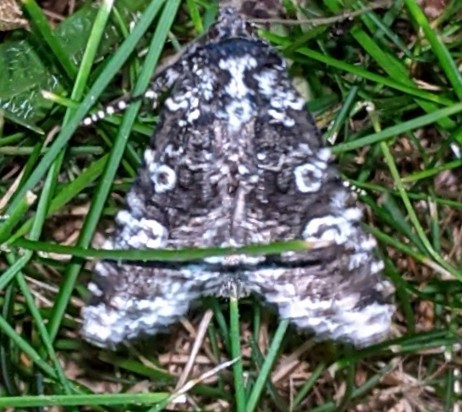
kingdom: Animalia
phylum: Arthropoda
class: Insecta
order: Lepidoptera
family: Noctuidae
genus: Melanchra
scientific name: Melanchra adjuncta
